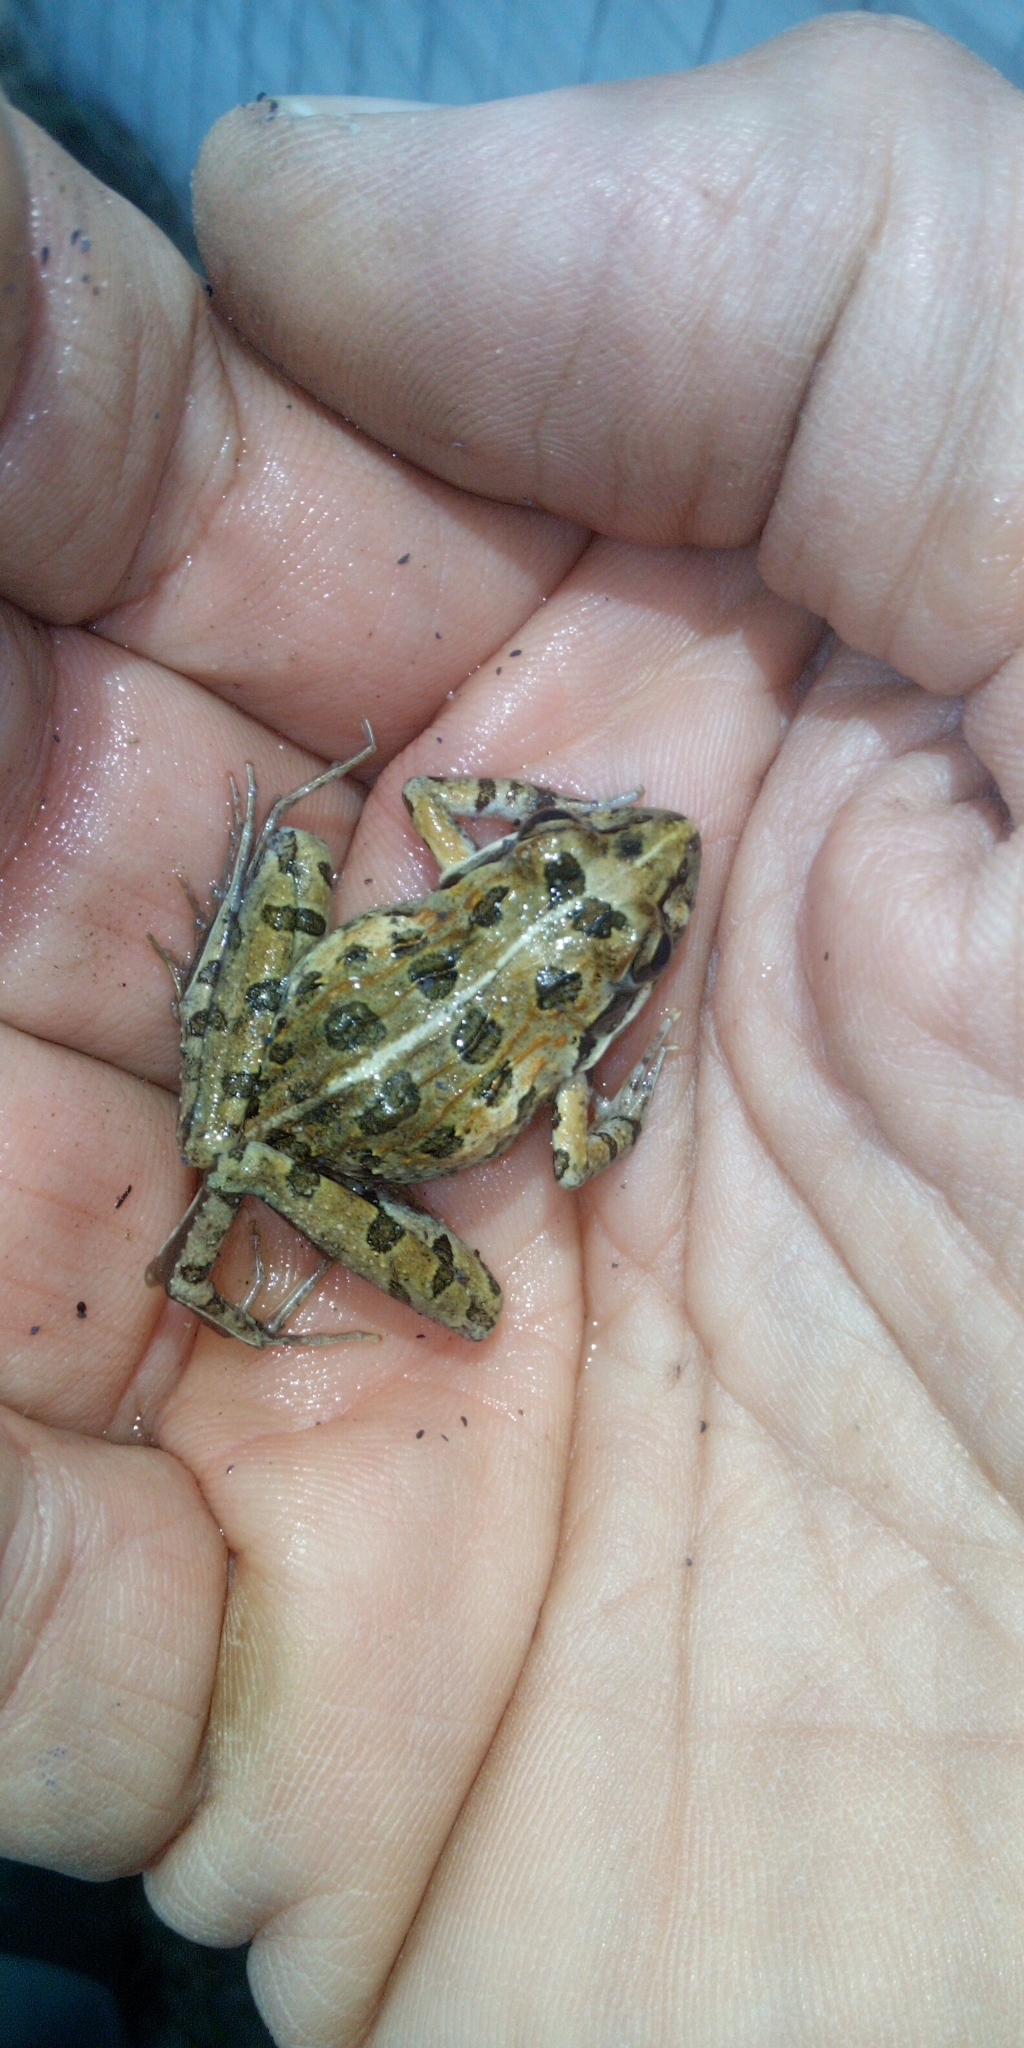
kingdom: Animalia
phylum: Chordata
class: Amphibia
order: Anura
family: Pyxicephalidae
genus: Strongylopus
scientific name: Strongylopus grayii
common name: Gray's stream frog
